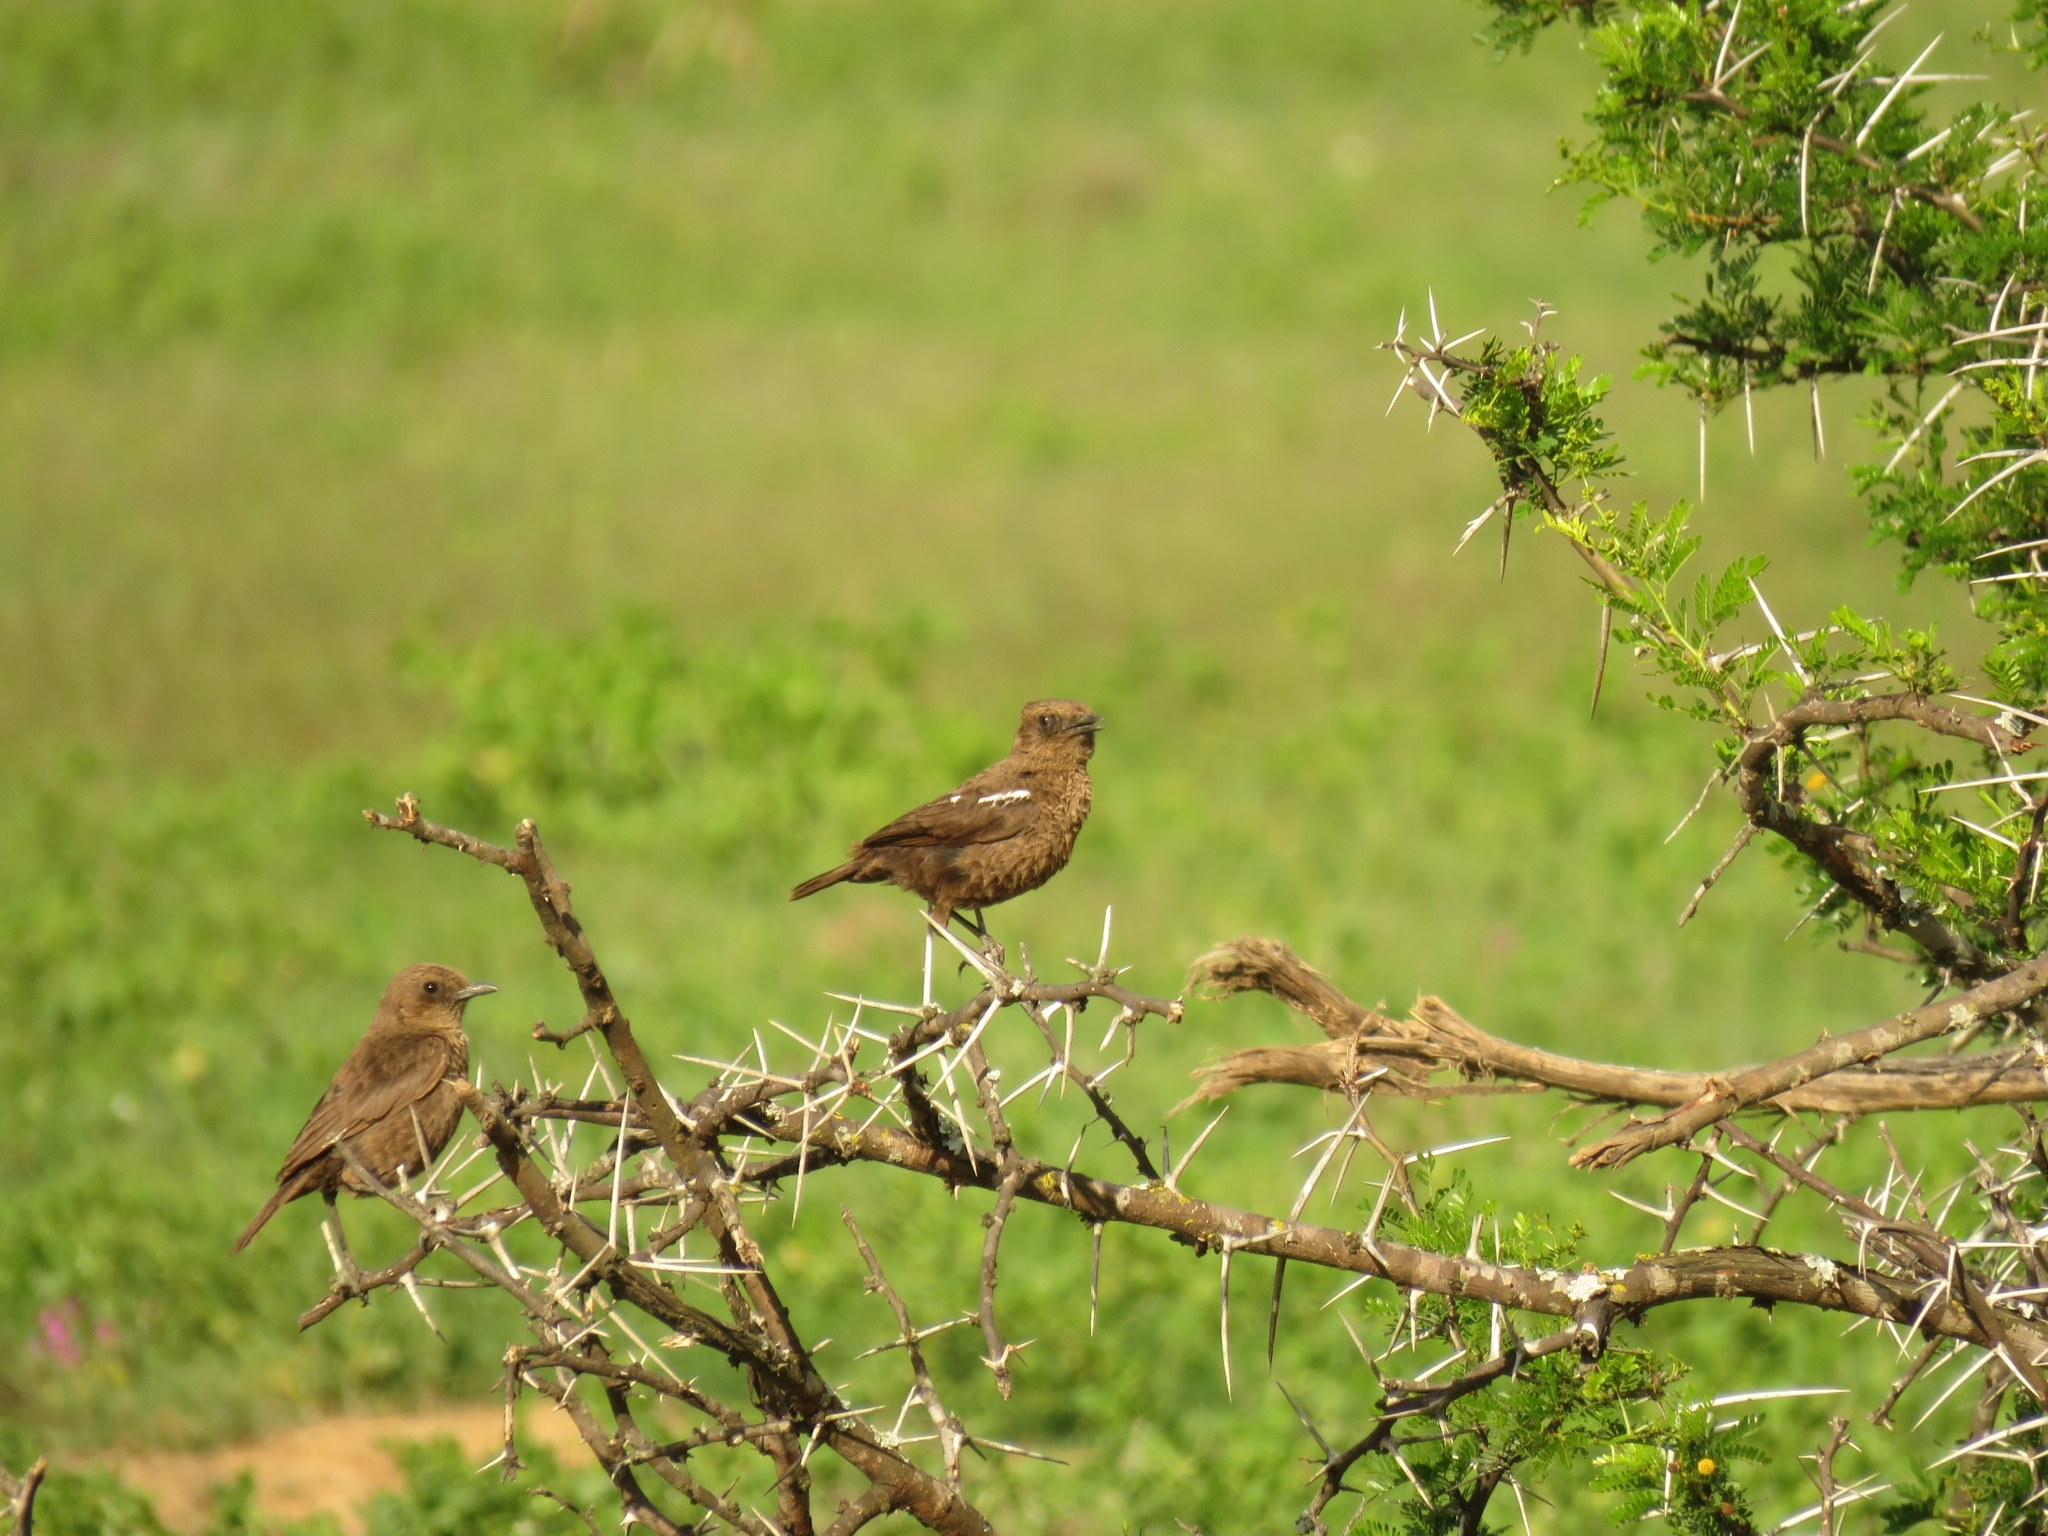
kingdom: Animalia
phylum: Chordata
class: Aves
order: Passeriformes
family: Muscicapidae
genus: Myrmecocichla
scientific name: Myrmecocichla formicivora
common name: Ant-eating chat
